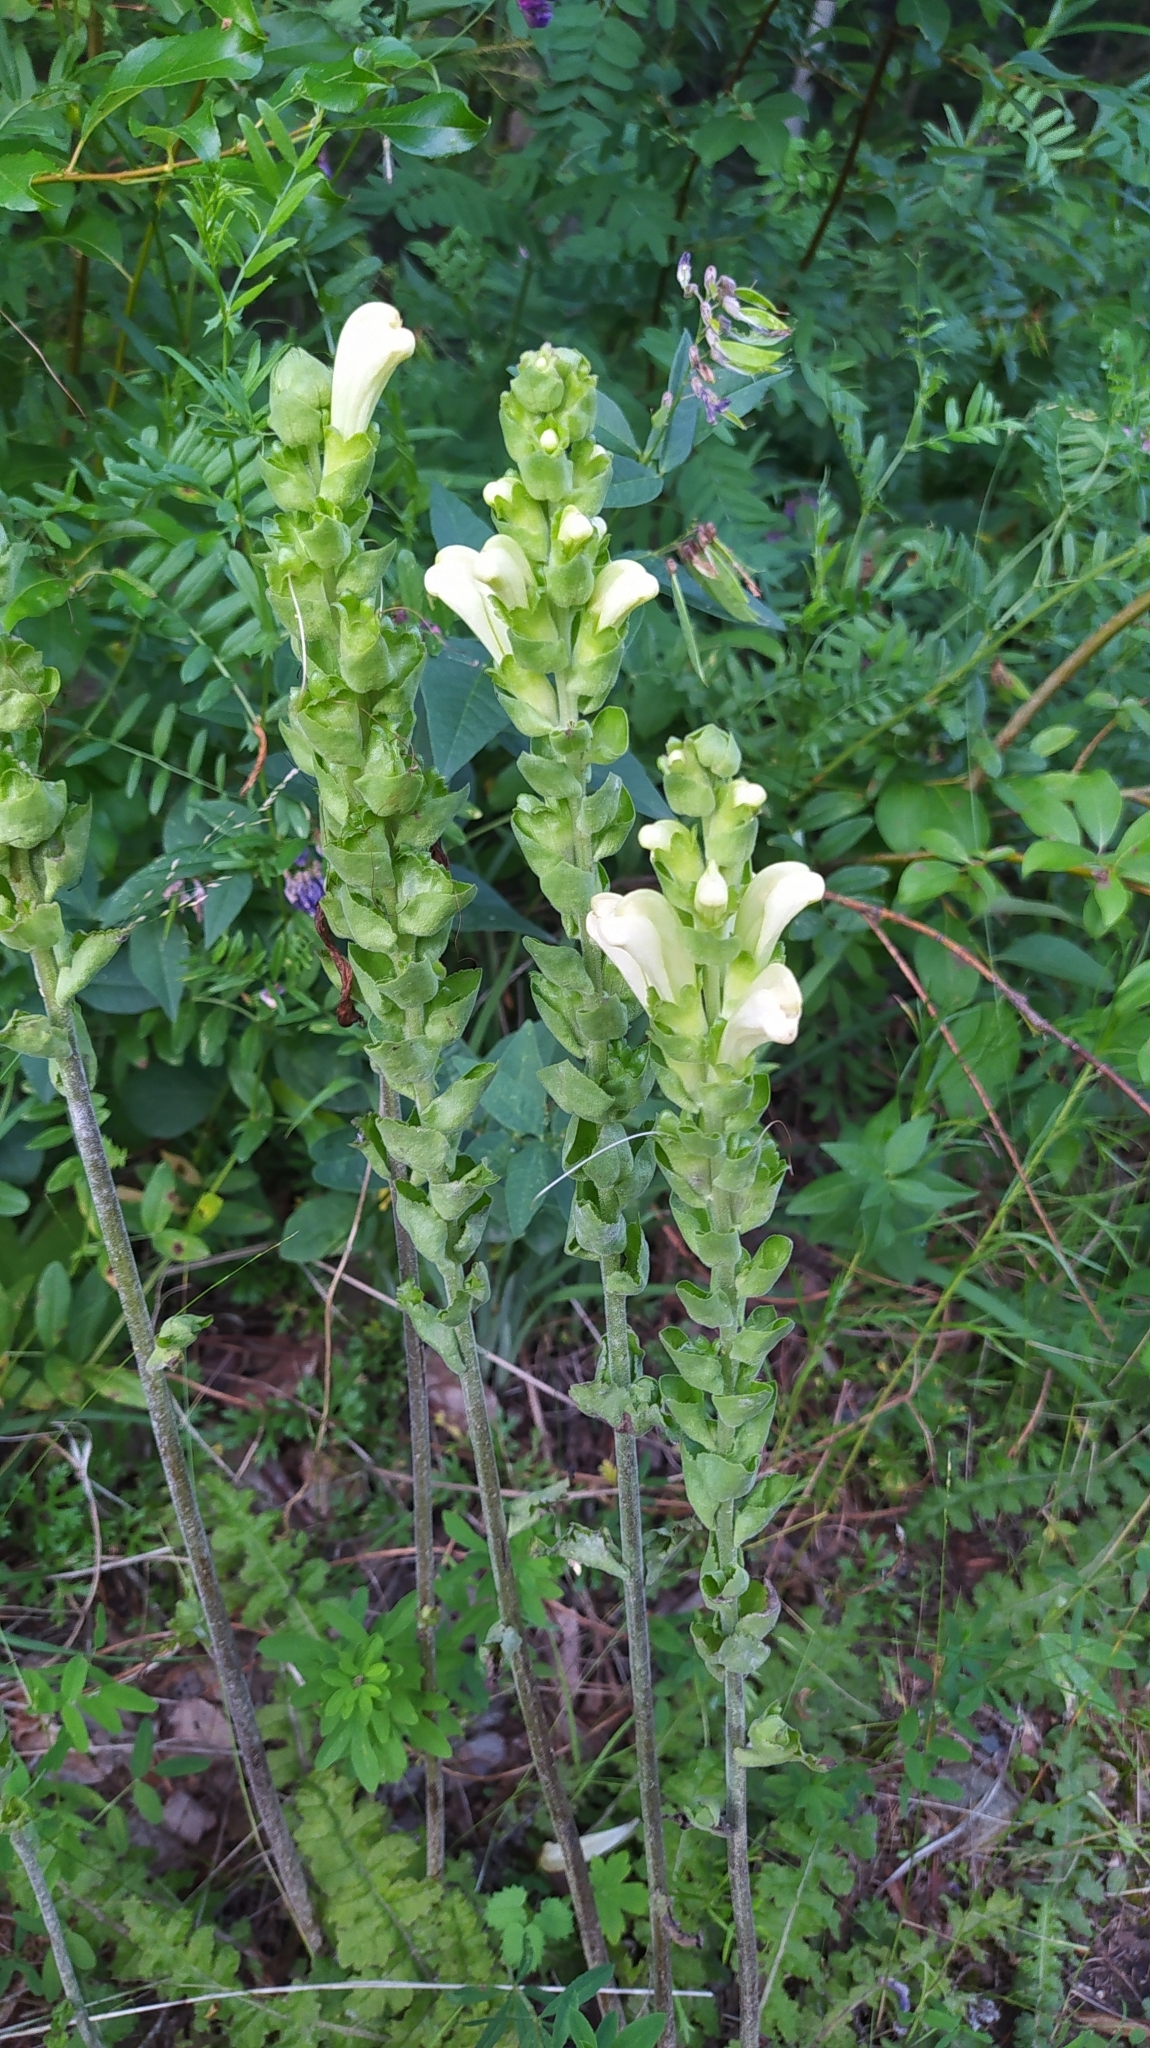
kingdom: Plantae
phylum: Tracheophyta
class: Magnoliopsida
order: Lamiales
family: Orobanchaceae
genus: Pedicularis
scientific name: Pedicularis sceptrum-carolinum
